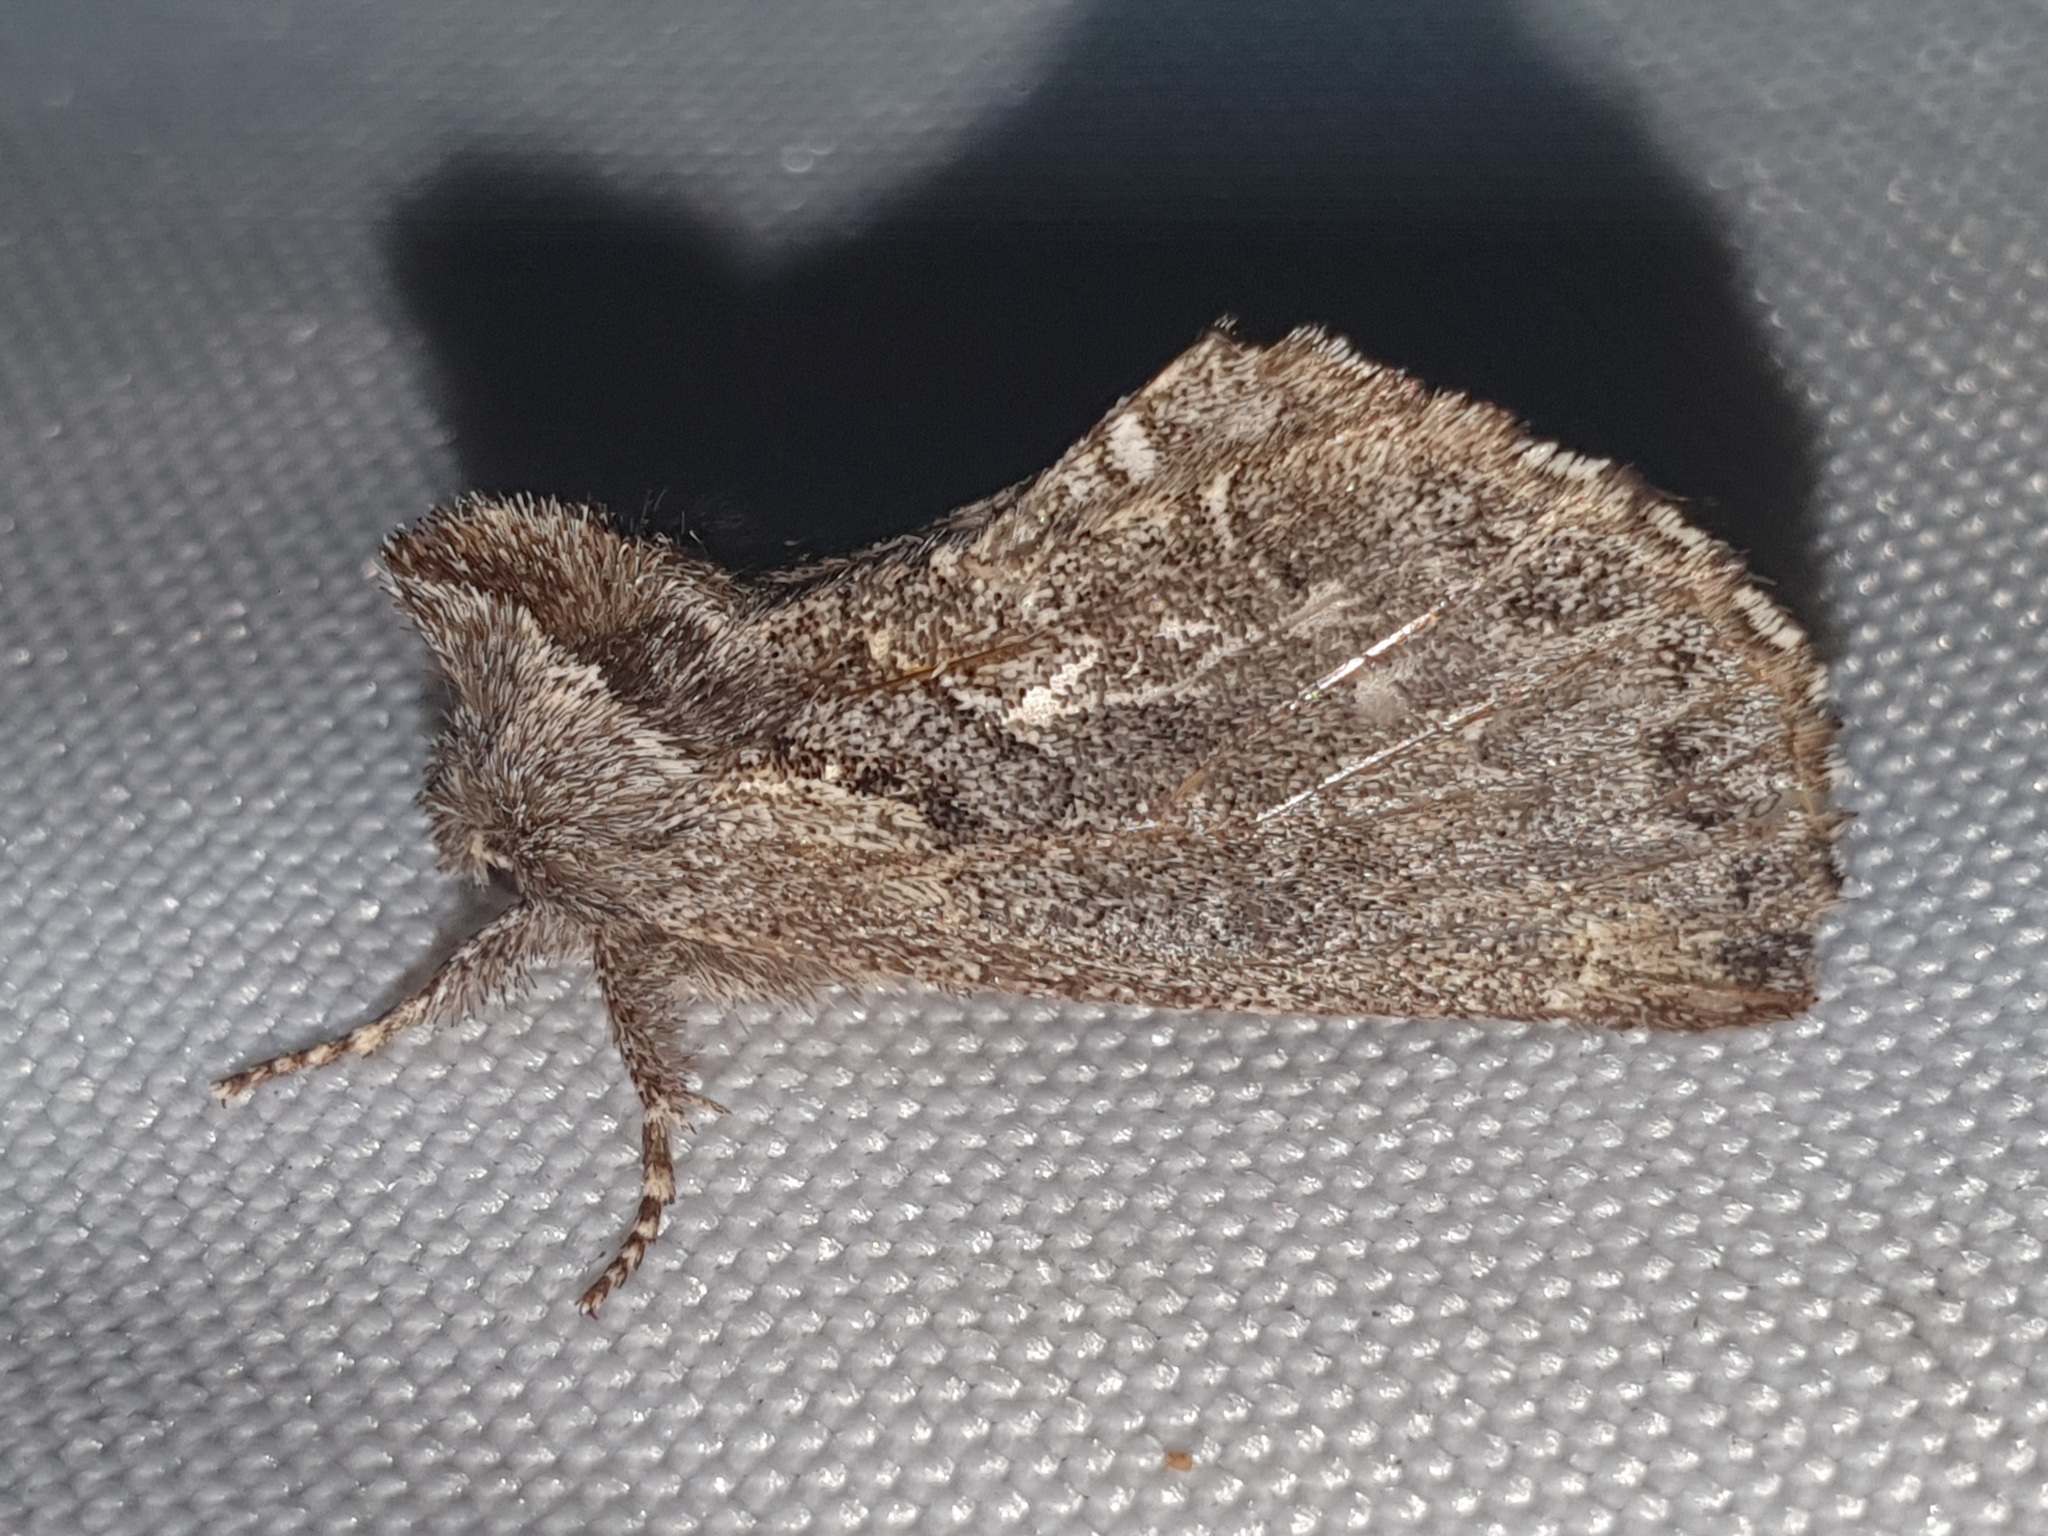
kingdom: Animalia
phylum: Arthropoda
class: Insecta
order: Lepidoptera
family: Notodontidae
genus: Rhegmatophila
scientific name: Rhegmatophila alpina
